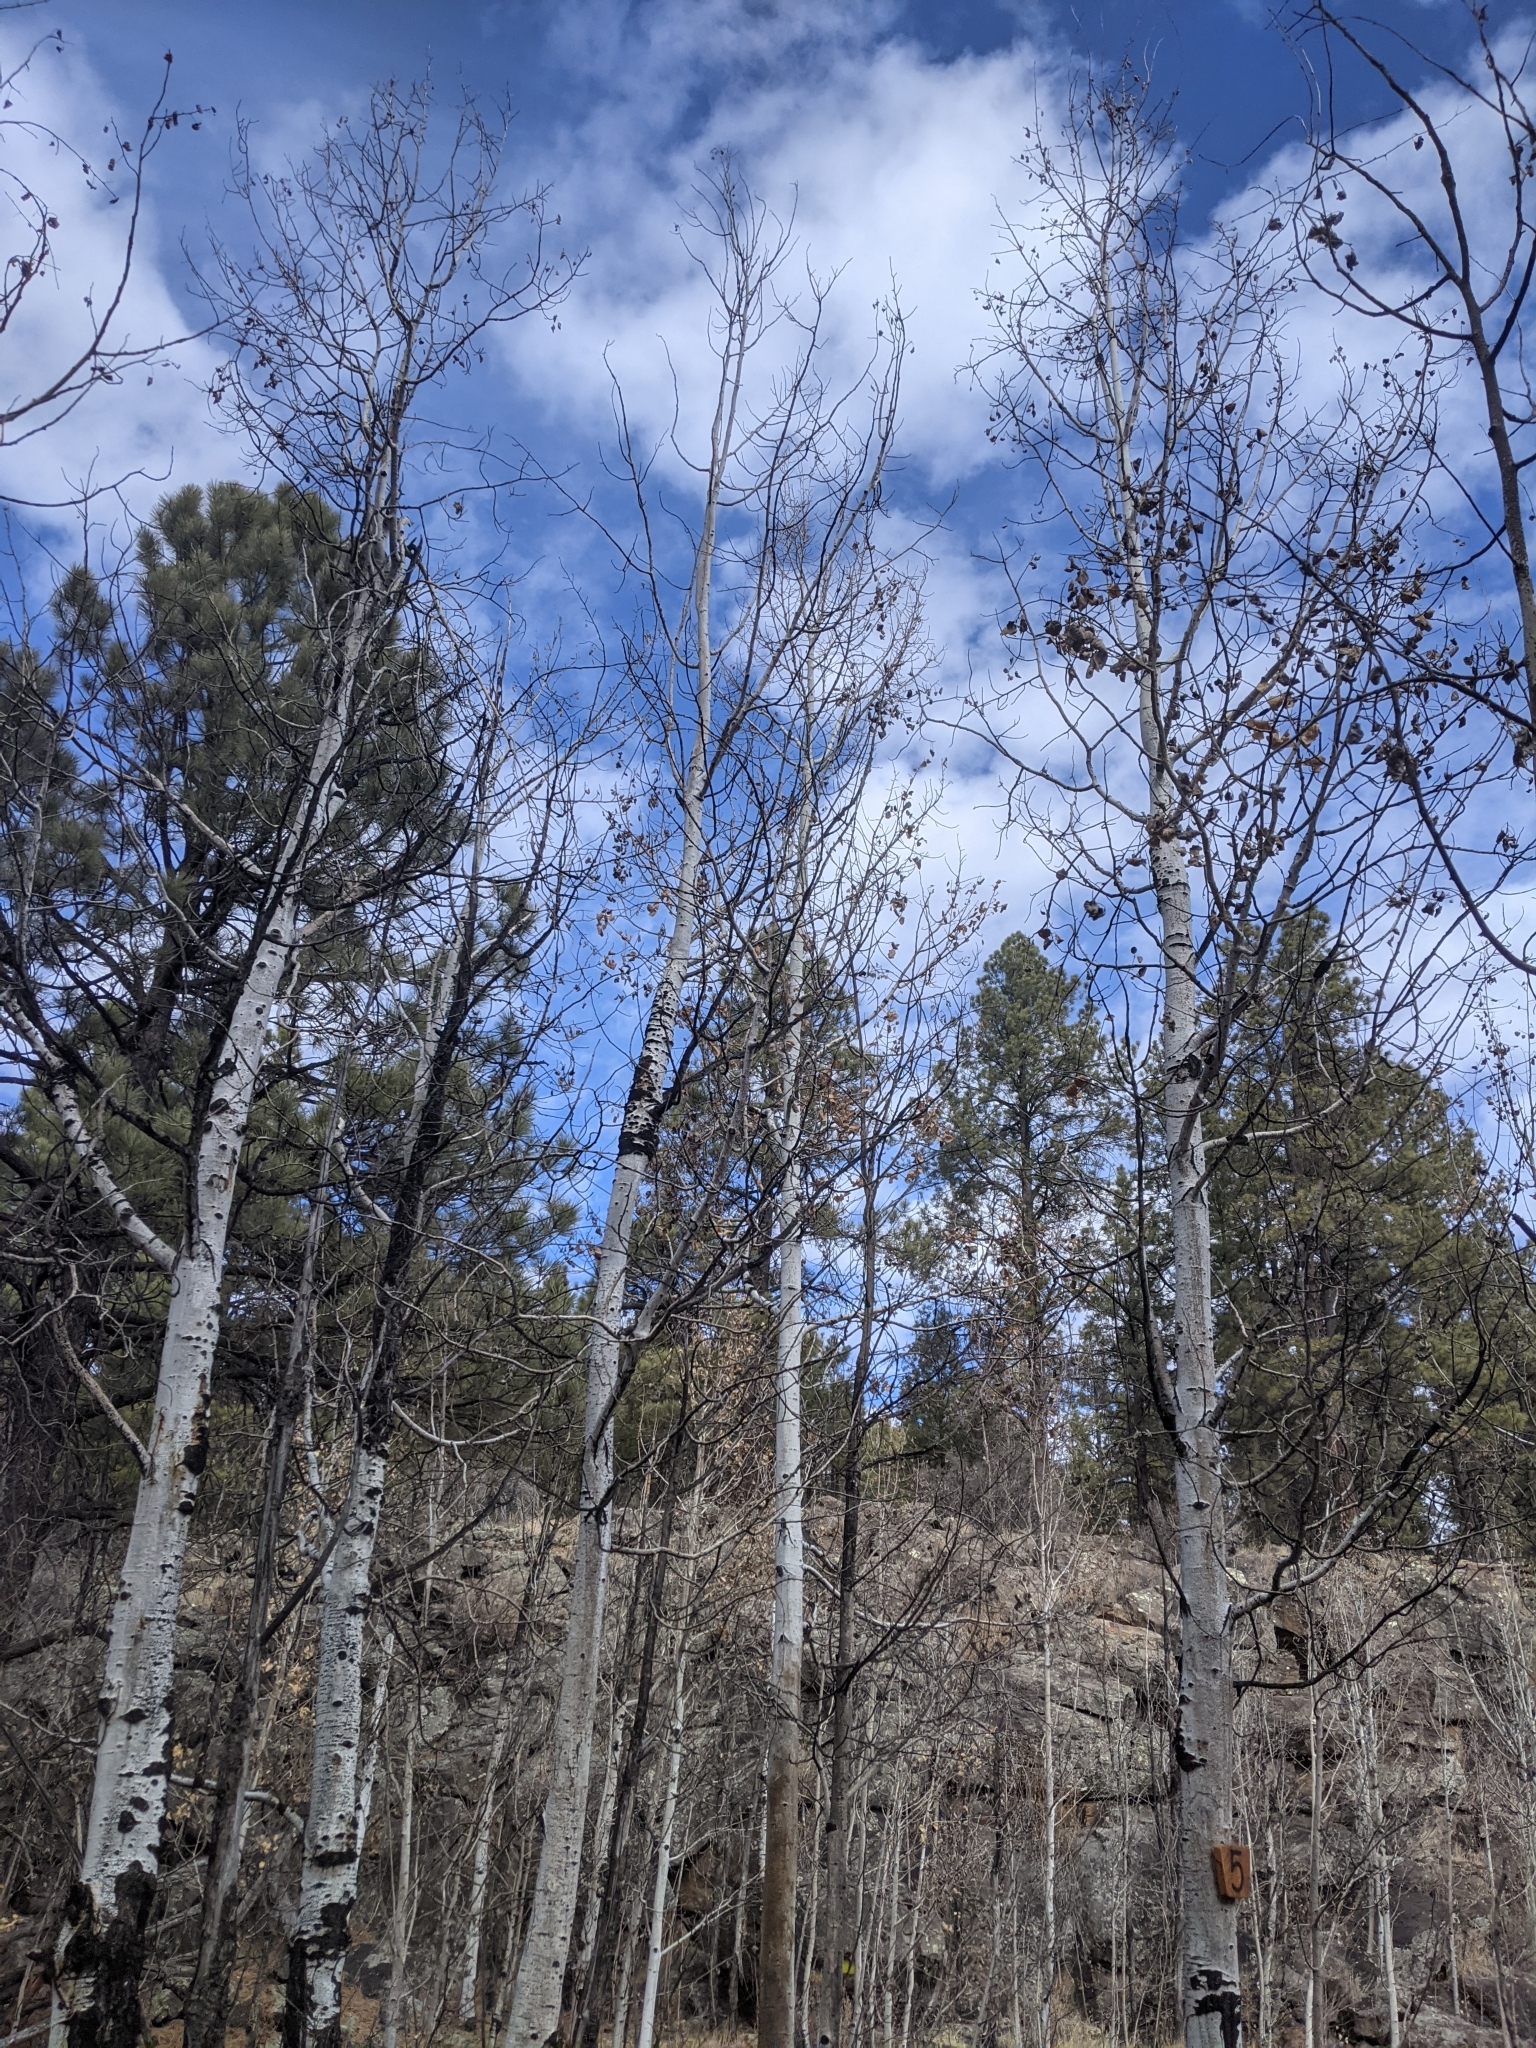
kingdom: Plantae
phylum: Tracheophyta
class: Magnoliopsida
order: Malpighiales
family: Salicaceae
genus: Populus
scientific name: Populus tremuloides
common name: Quaking aspen
